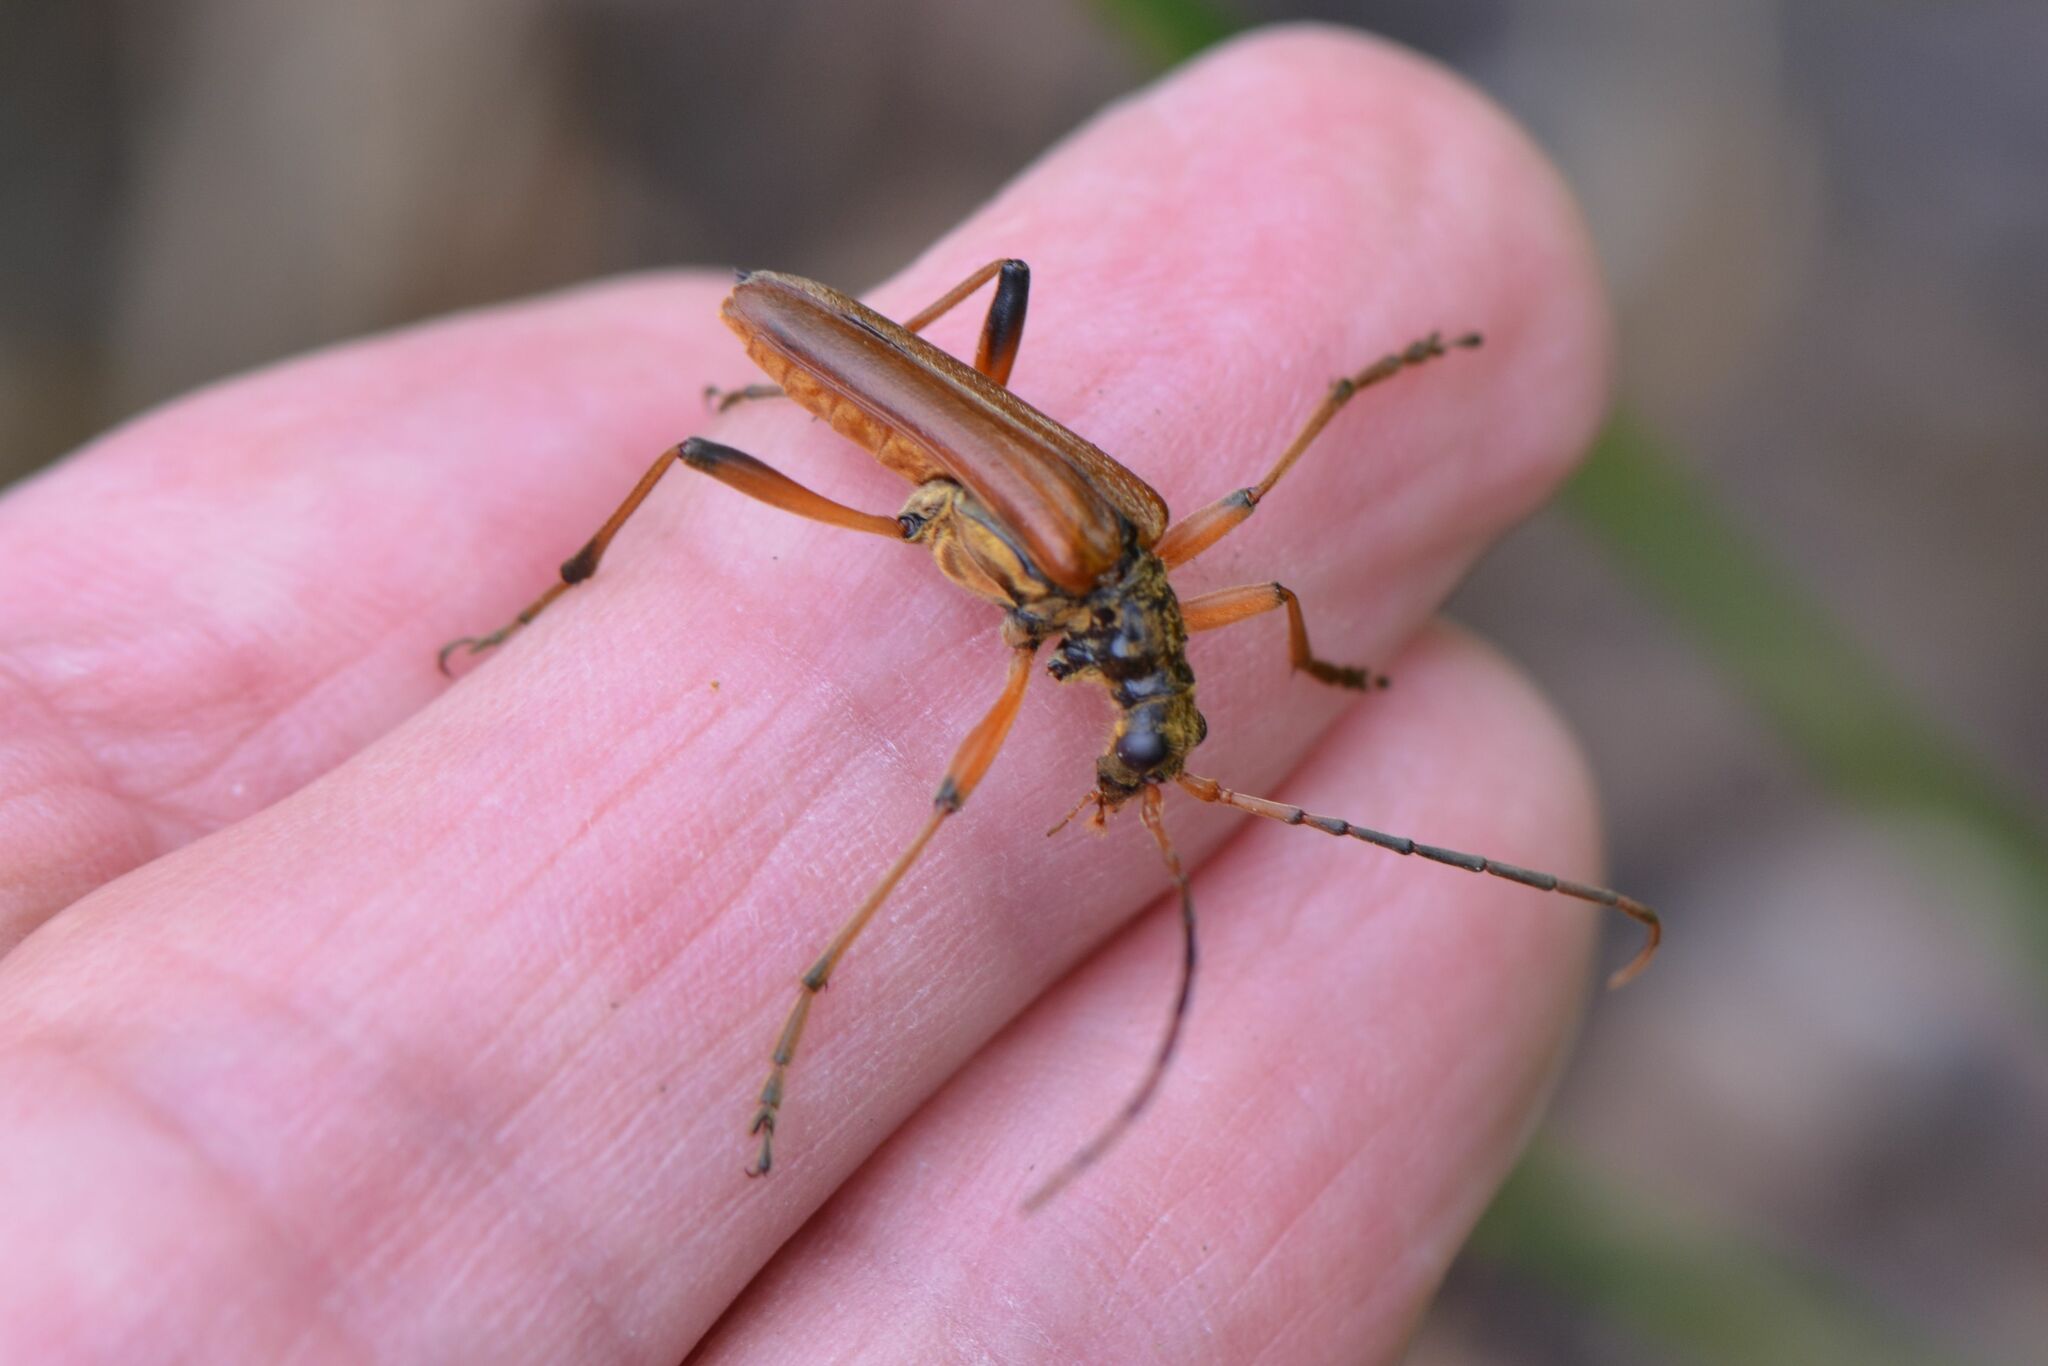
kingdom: Animalia
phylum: Arthropoda
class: Insecta
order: Coleoptera
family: Cerambycidae
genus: Stenocorus
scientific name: Stenocorus meridianus
